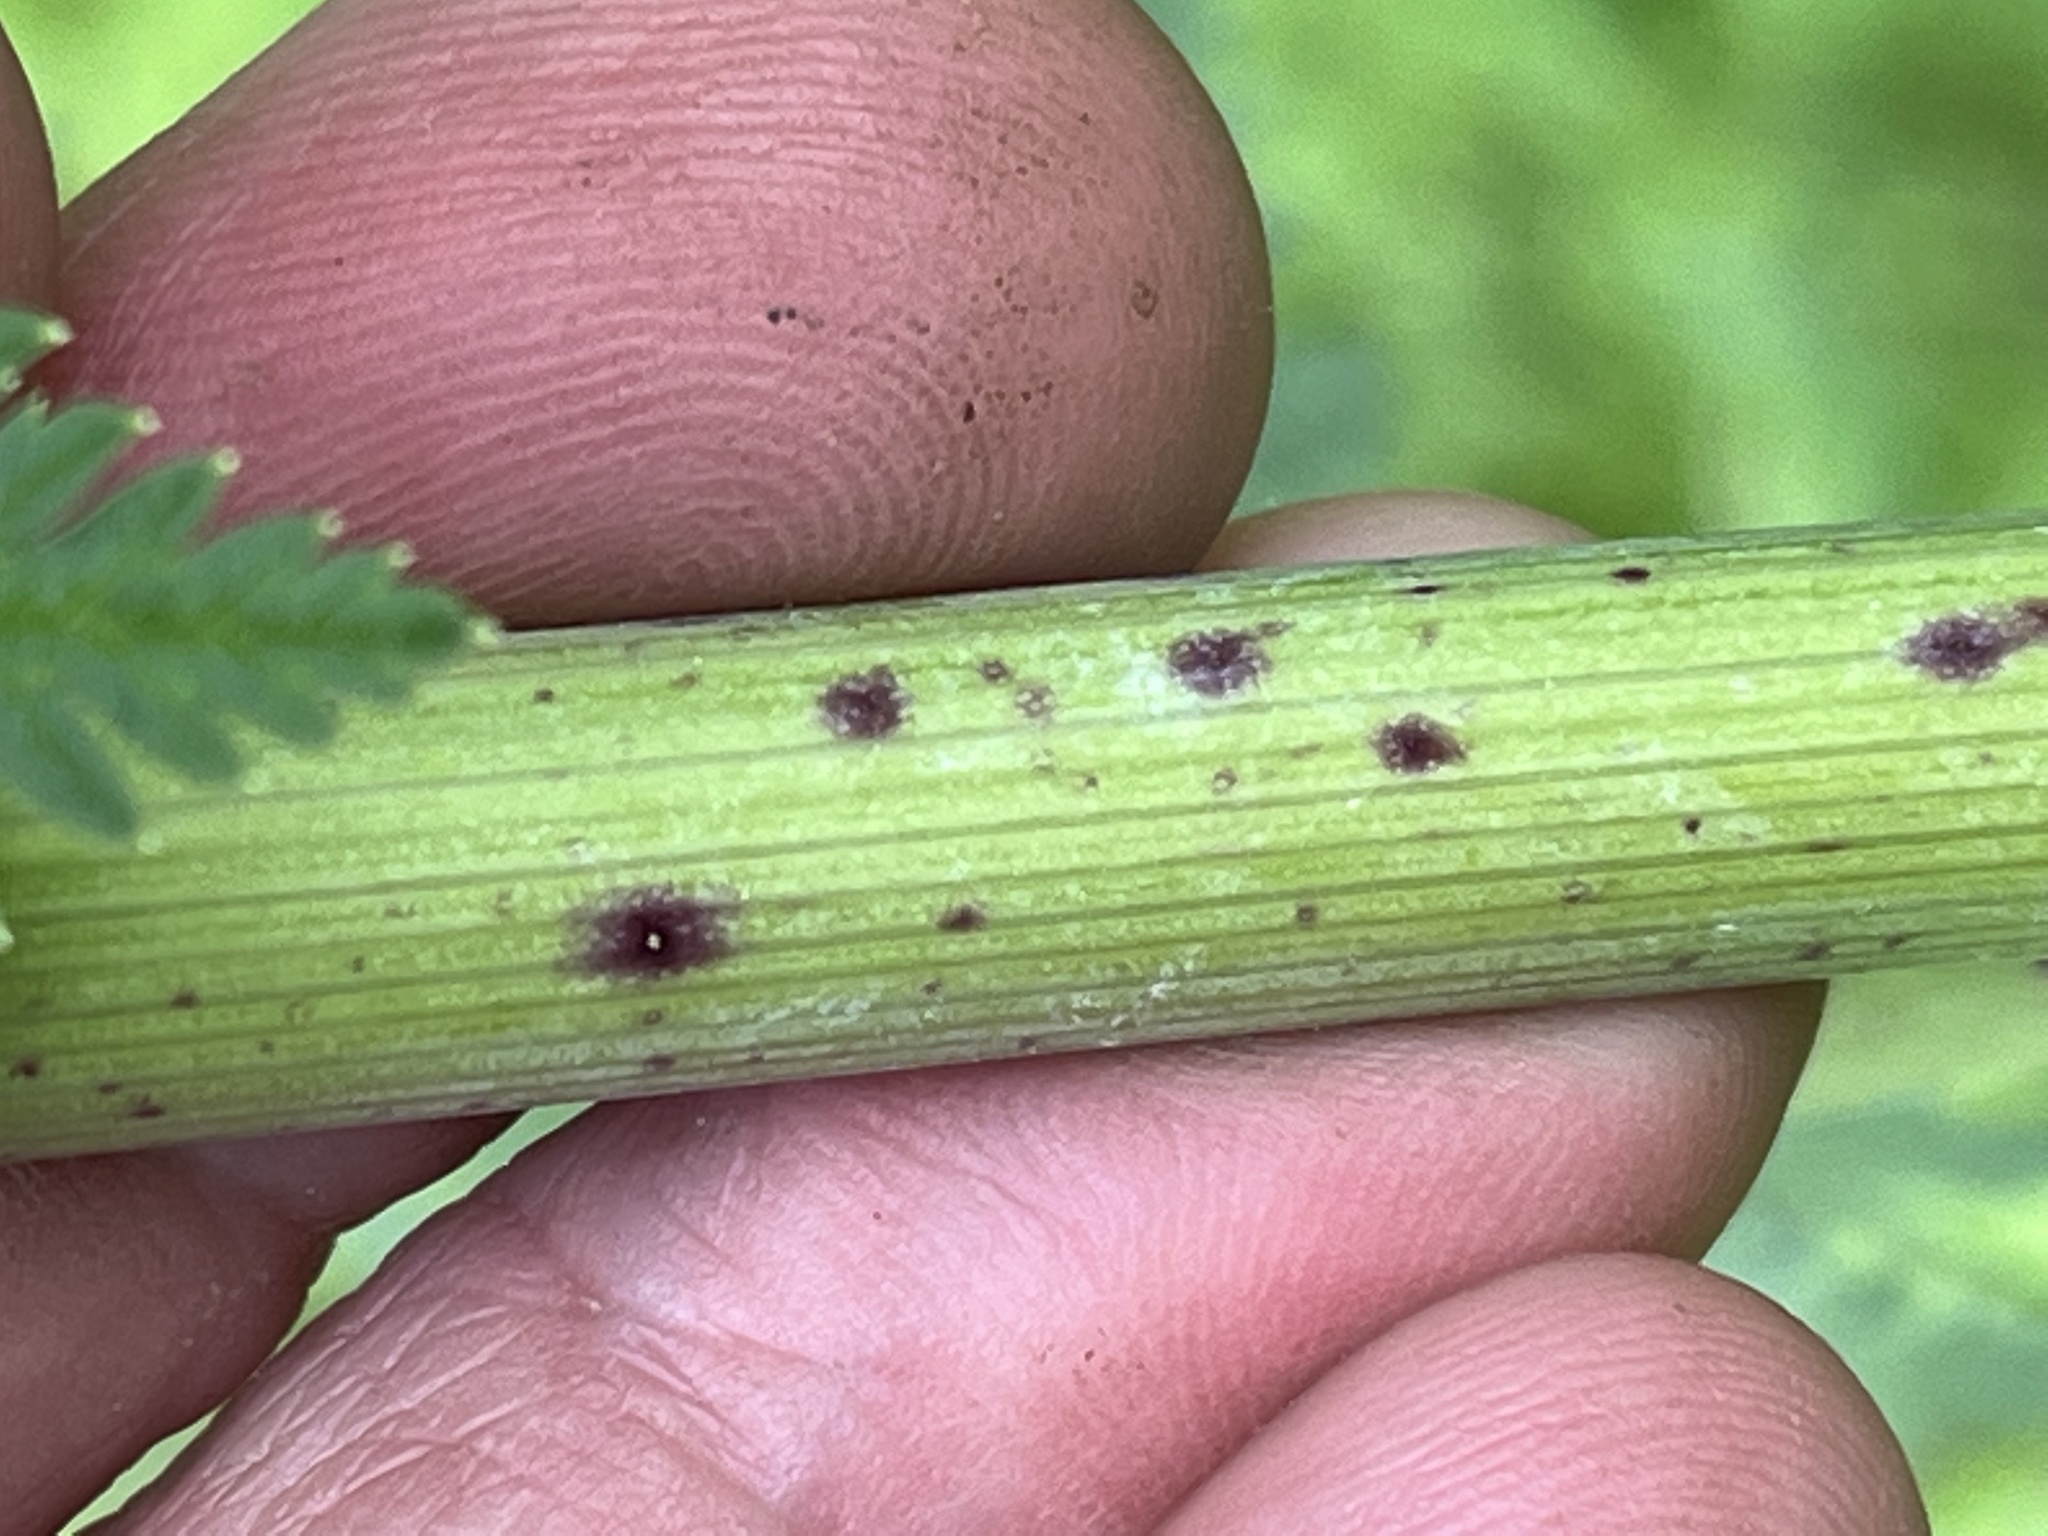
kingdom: Plantae
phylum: Tracheophyta
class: Magnoliopsida
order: Apiales
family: Apiaceae
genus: Conium
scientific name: Conium maculatum
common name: Hemlock
